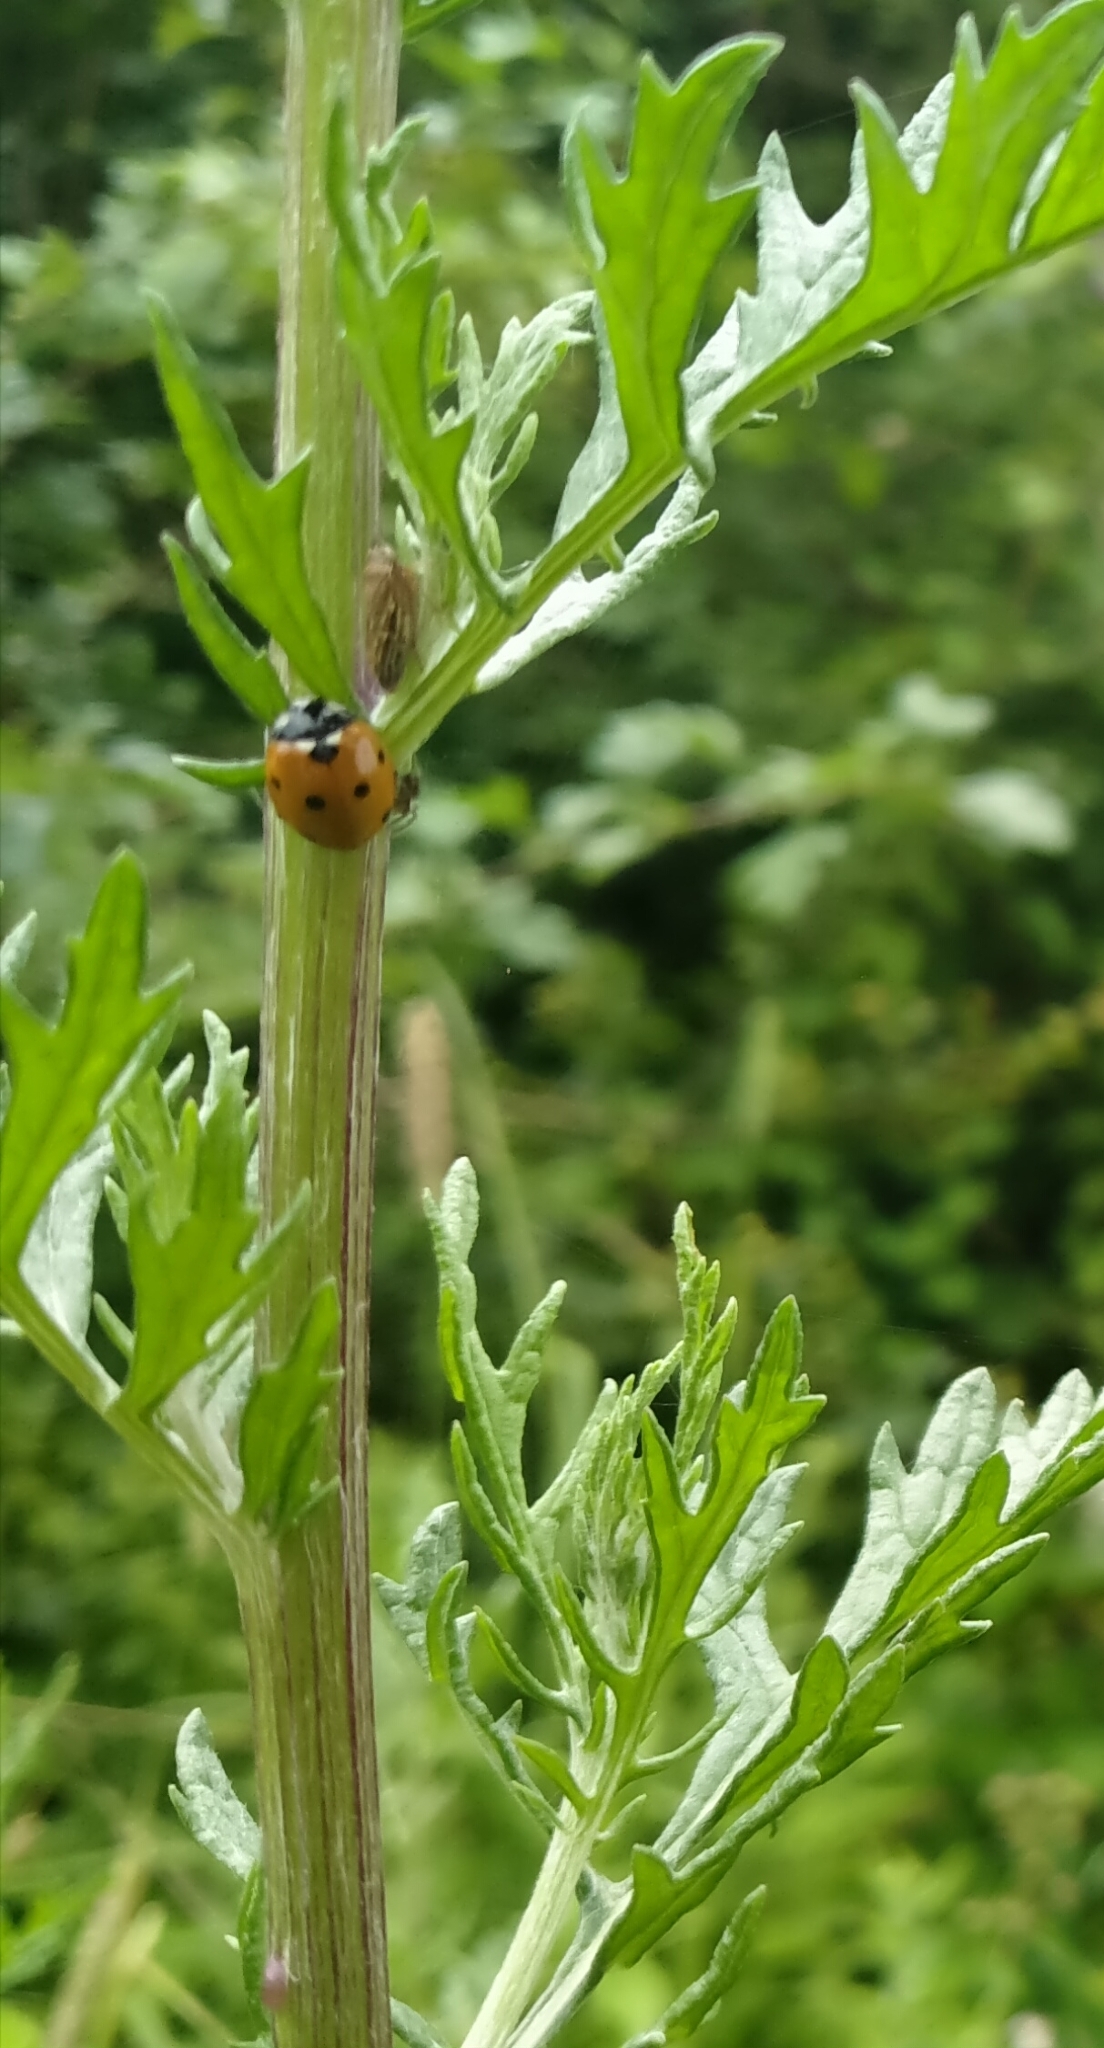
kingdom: Animalia
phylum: Arthropoda
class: Insecta
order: Coleoptera
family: Coccinellidae
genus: Coccinella
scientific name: Coccinella septempunctata
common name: Sevenspotted lady beetle
